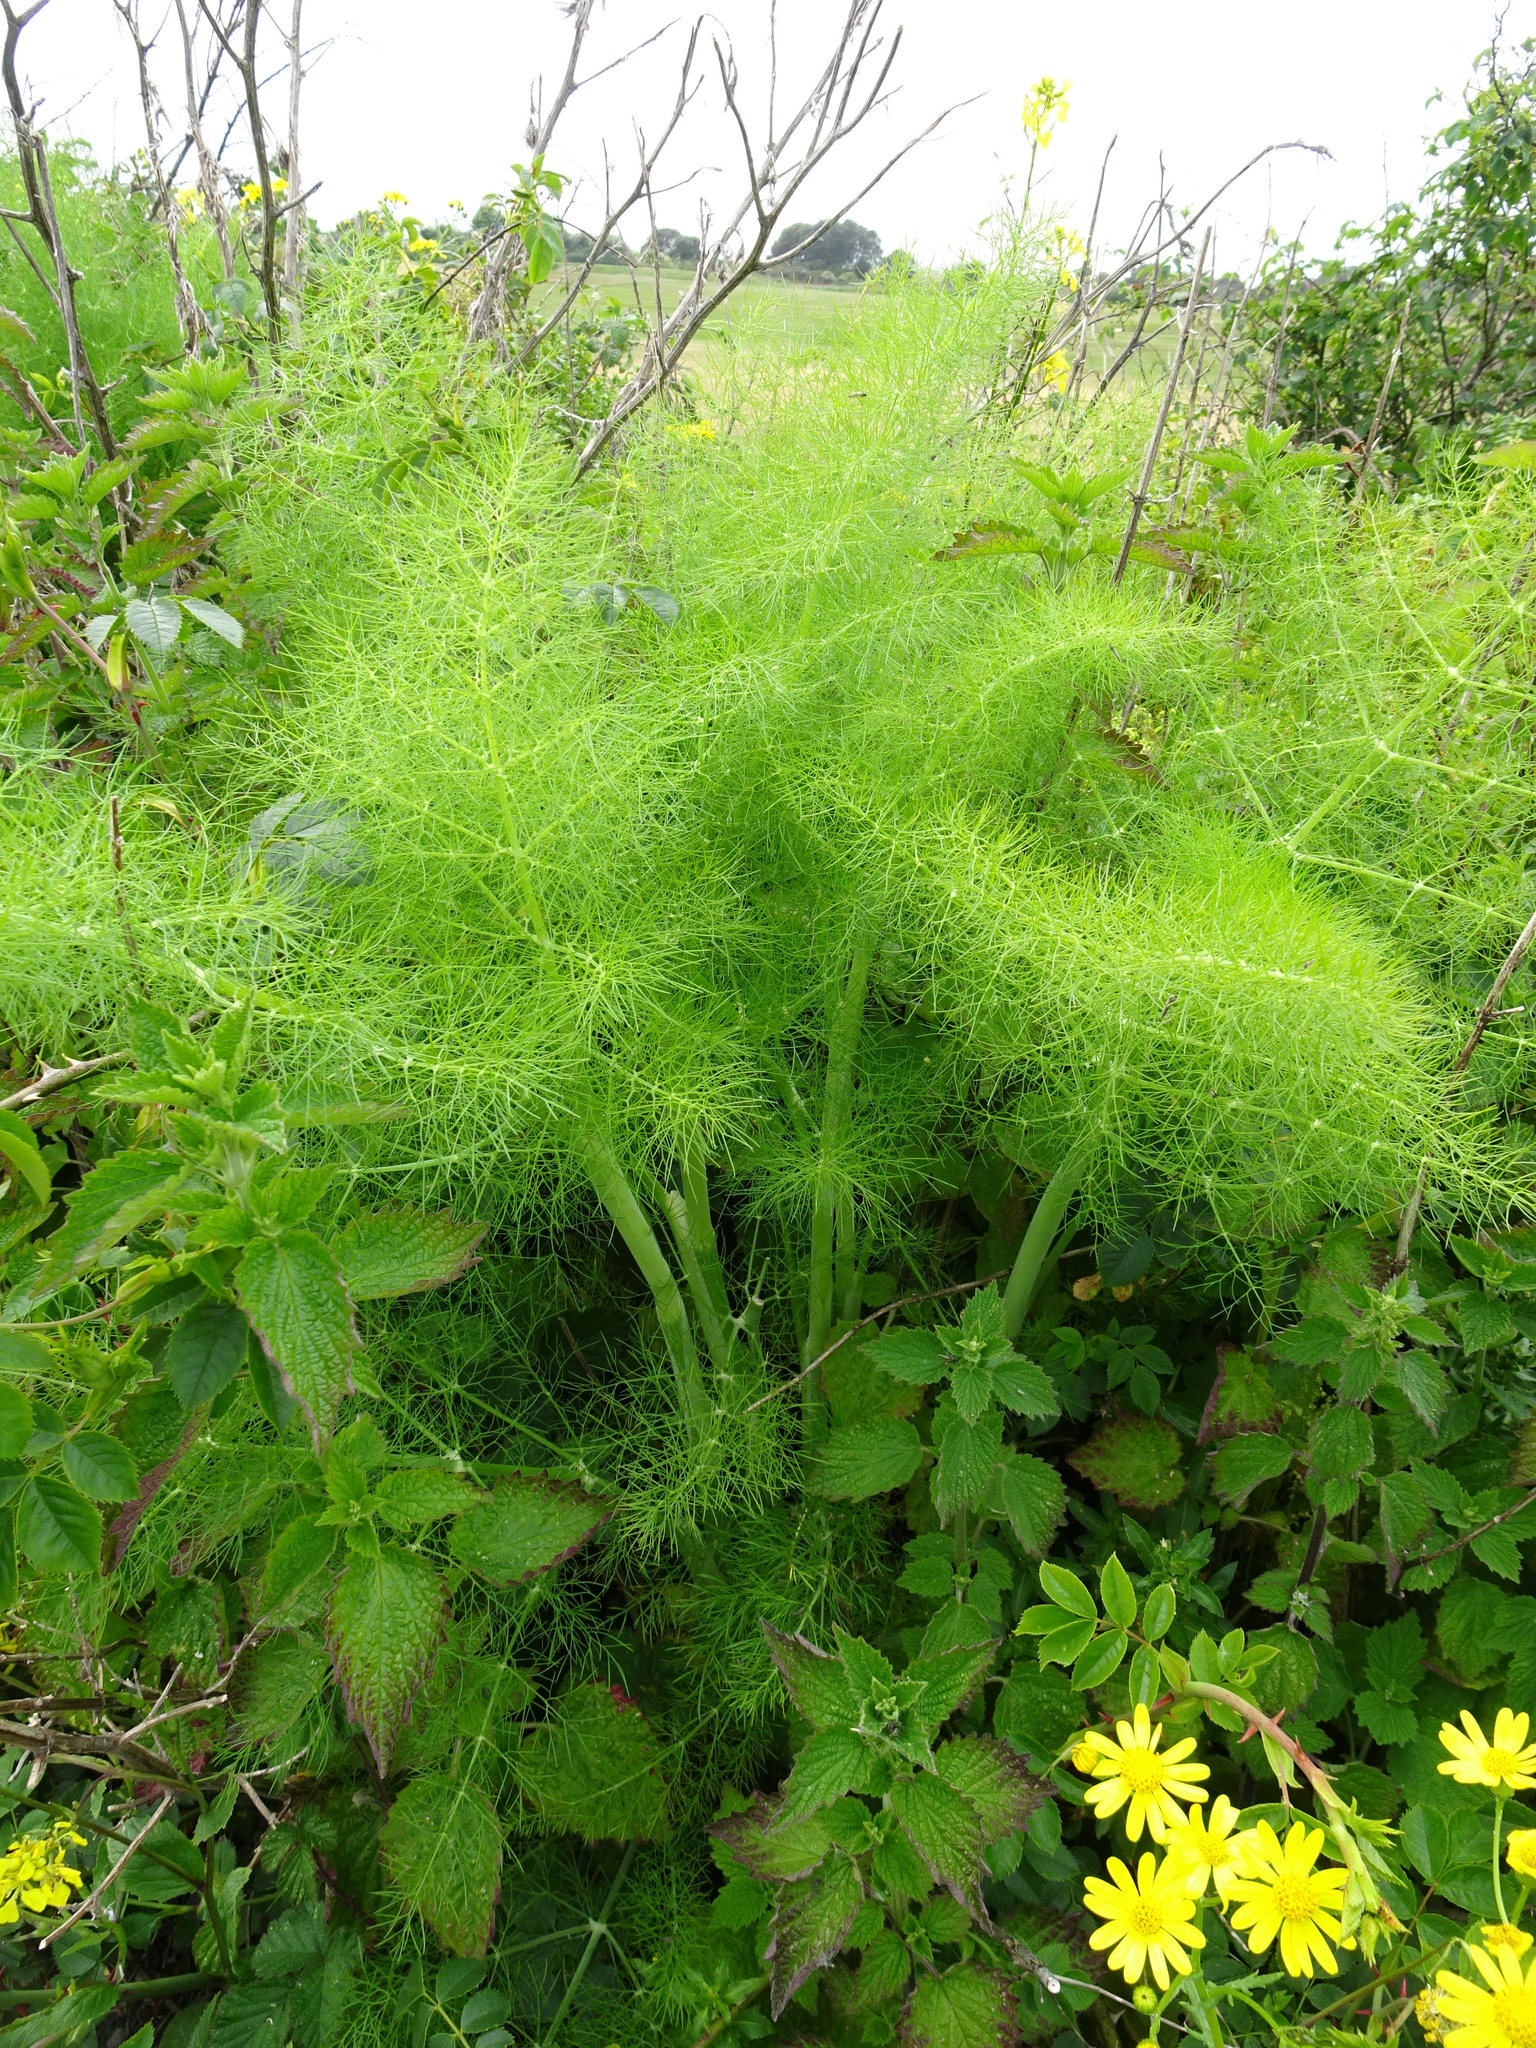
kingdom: Plantae
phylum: Tracheophyta
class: Magnoliopsida
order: Apiales
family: Apiaceae
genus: Foeniculum
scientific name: Foeniculum vulgare
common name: Fennel
